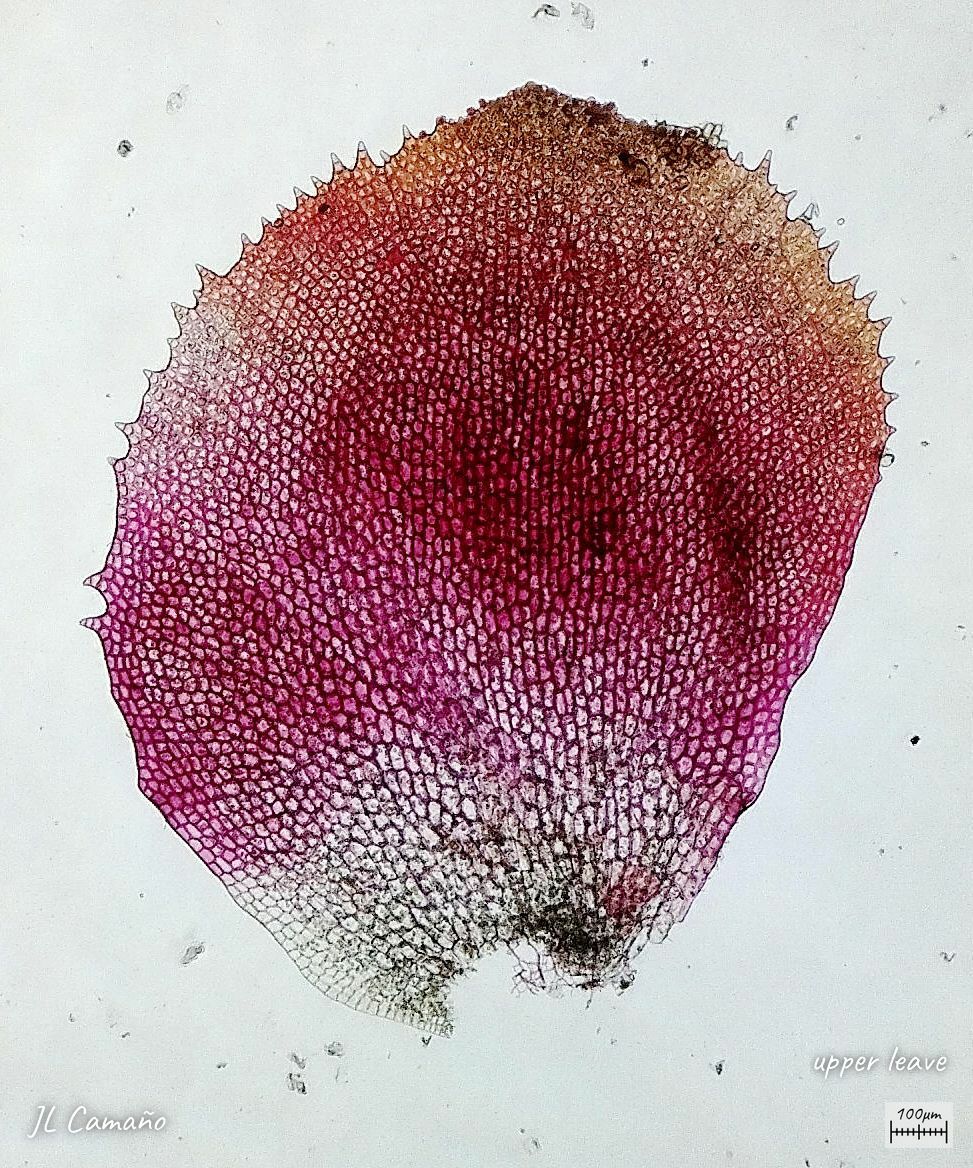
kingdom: Plantae
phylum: Marchantiophyta
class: Jungermanniopsida
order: Jungermanniales
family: Scapaniaceae
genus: Scapania
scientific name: Scapania undulata
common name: Water earwort
